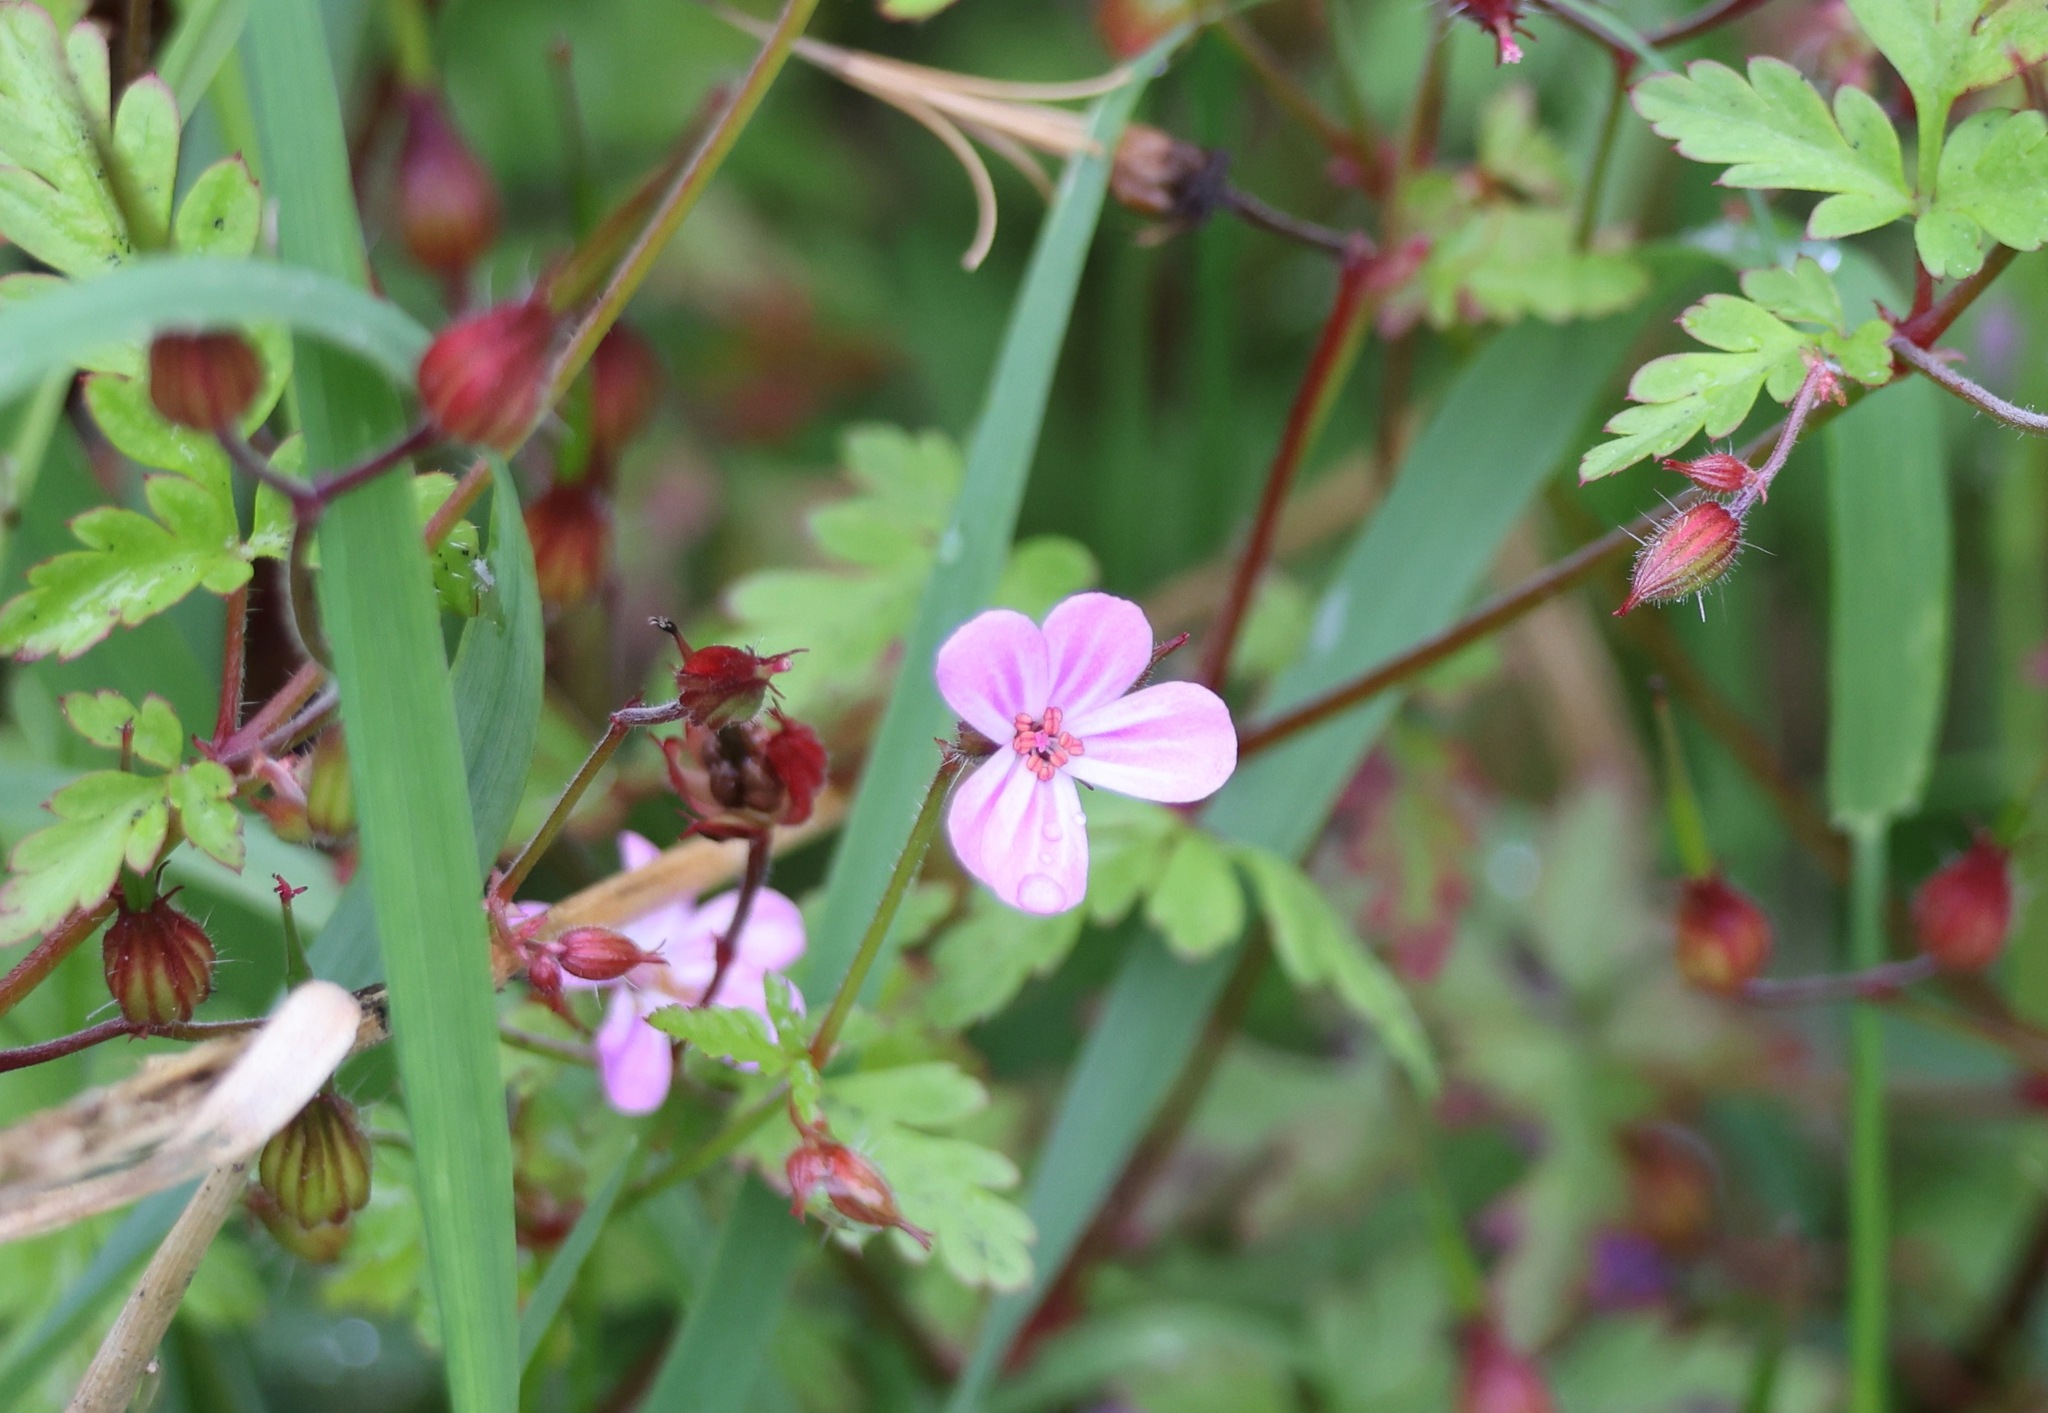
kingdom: Plantae
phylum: Tracheophyta
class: Magnoliopsida
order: Geraniales
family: Geraniaceae
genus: Geranium
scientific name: Geranium robertianum
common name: Herb-robert
